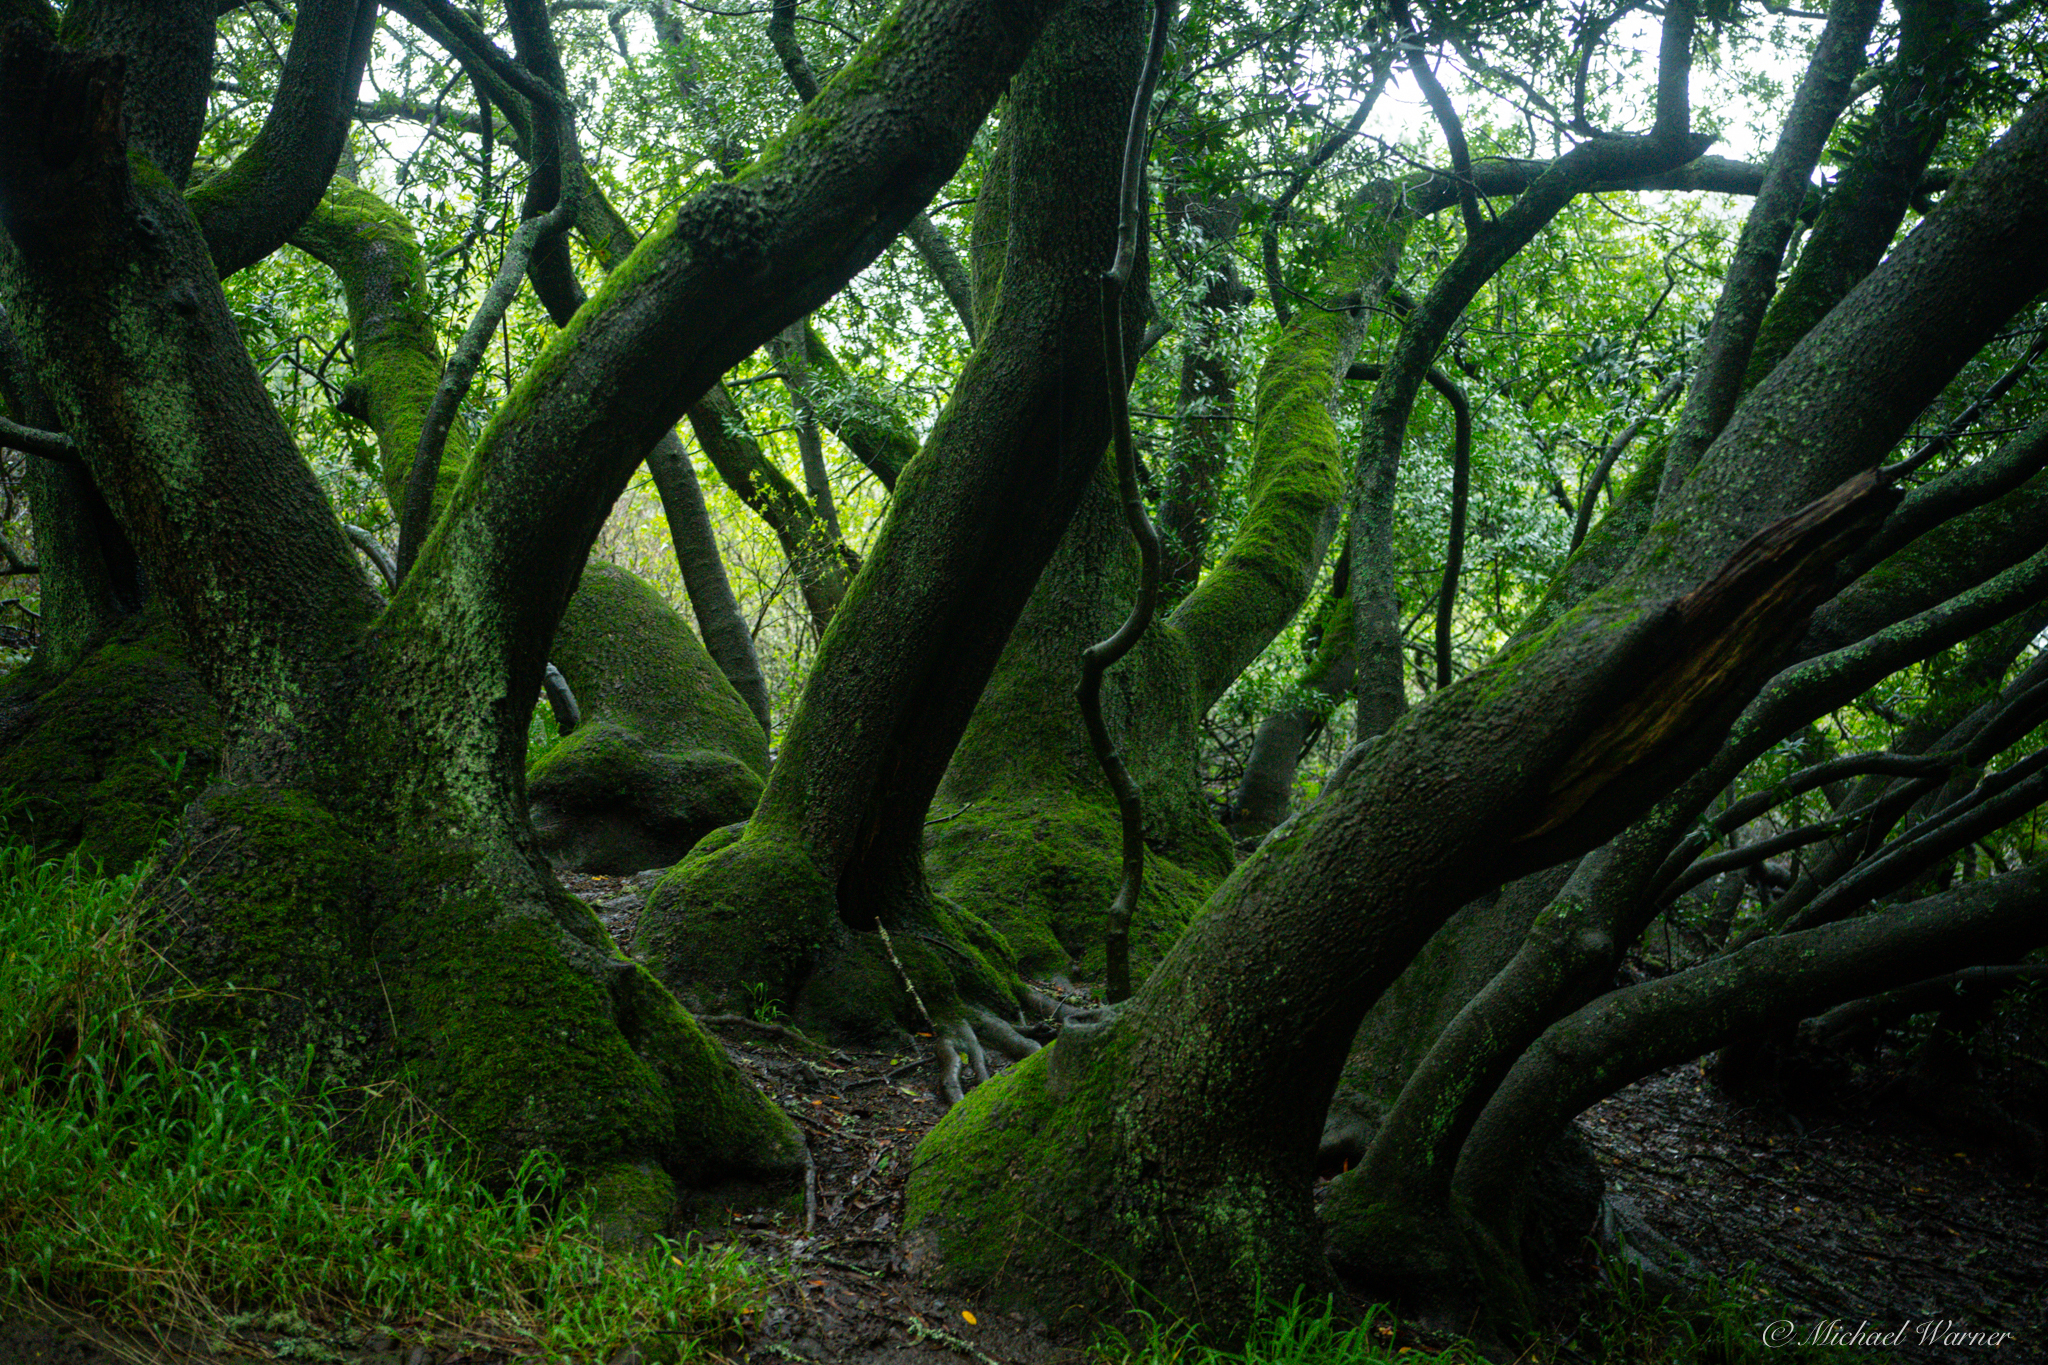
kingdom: Plantae
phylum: Tracheophyta
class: Magnoliopsida
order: Laurales
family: Lauraceae
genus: Umbellularia
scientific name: Umbellularia californica
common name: California bay
